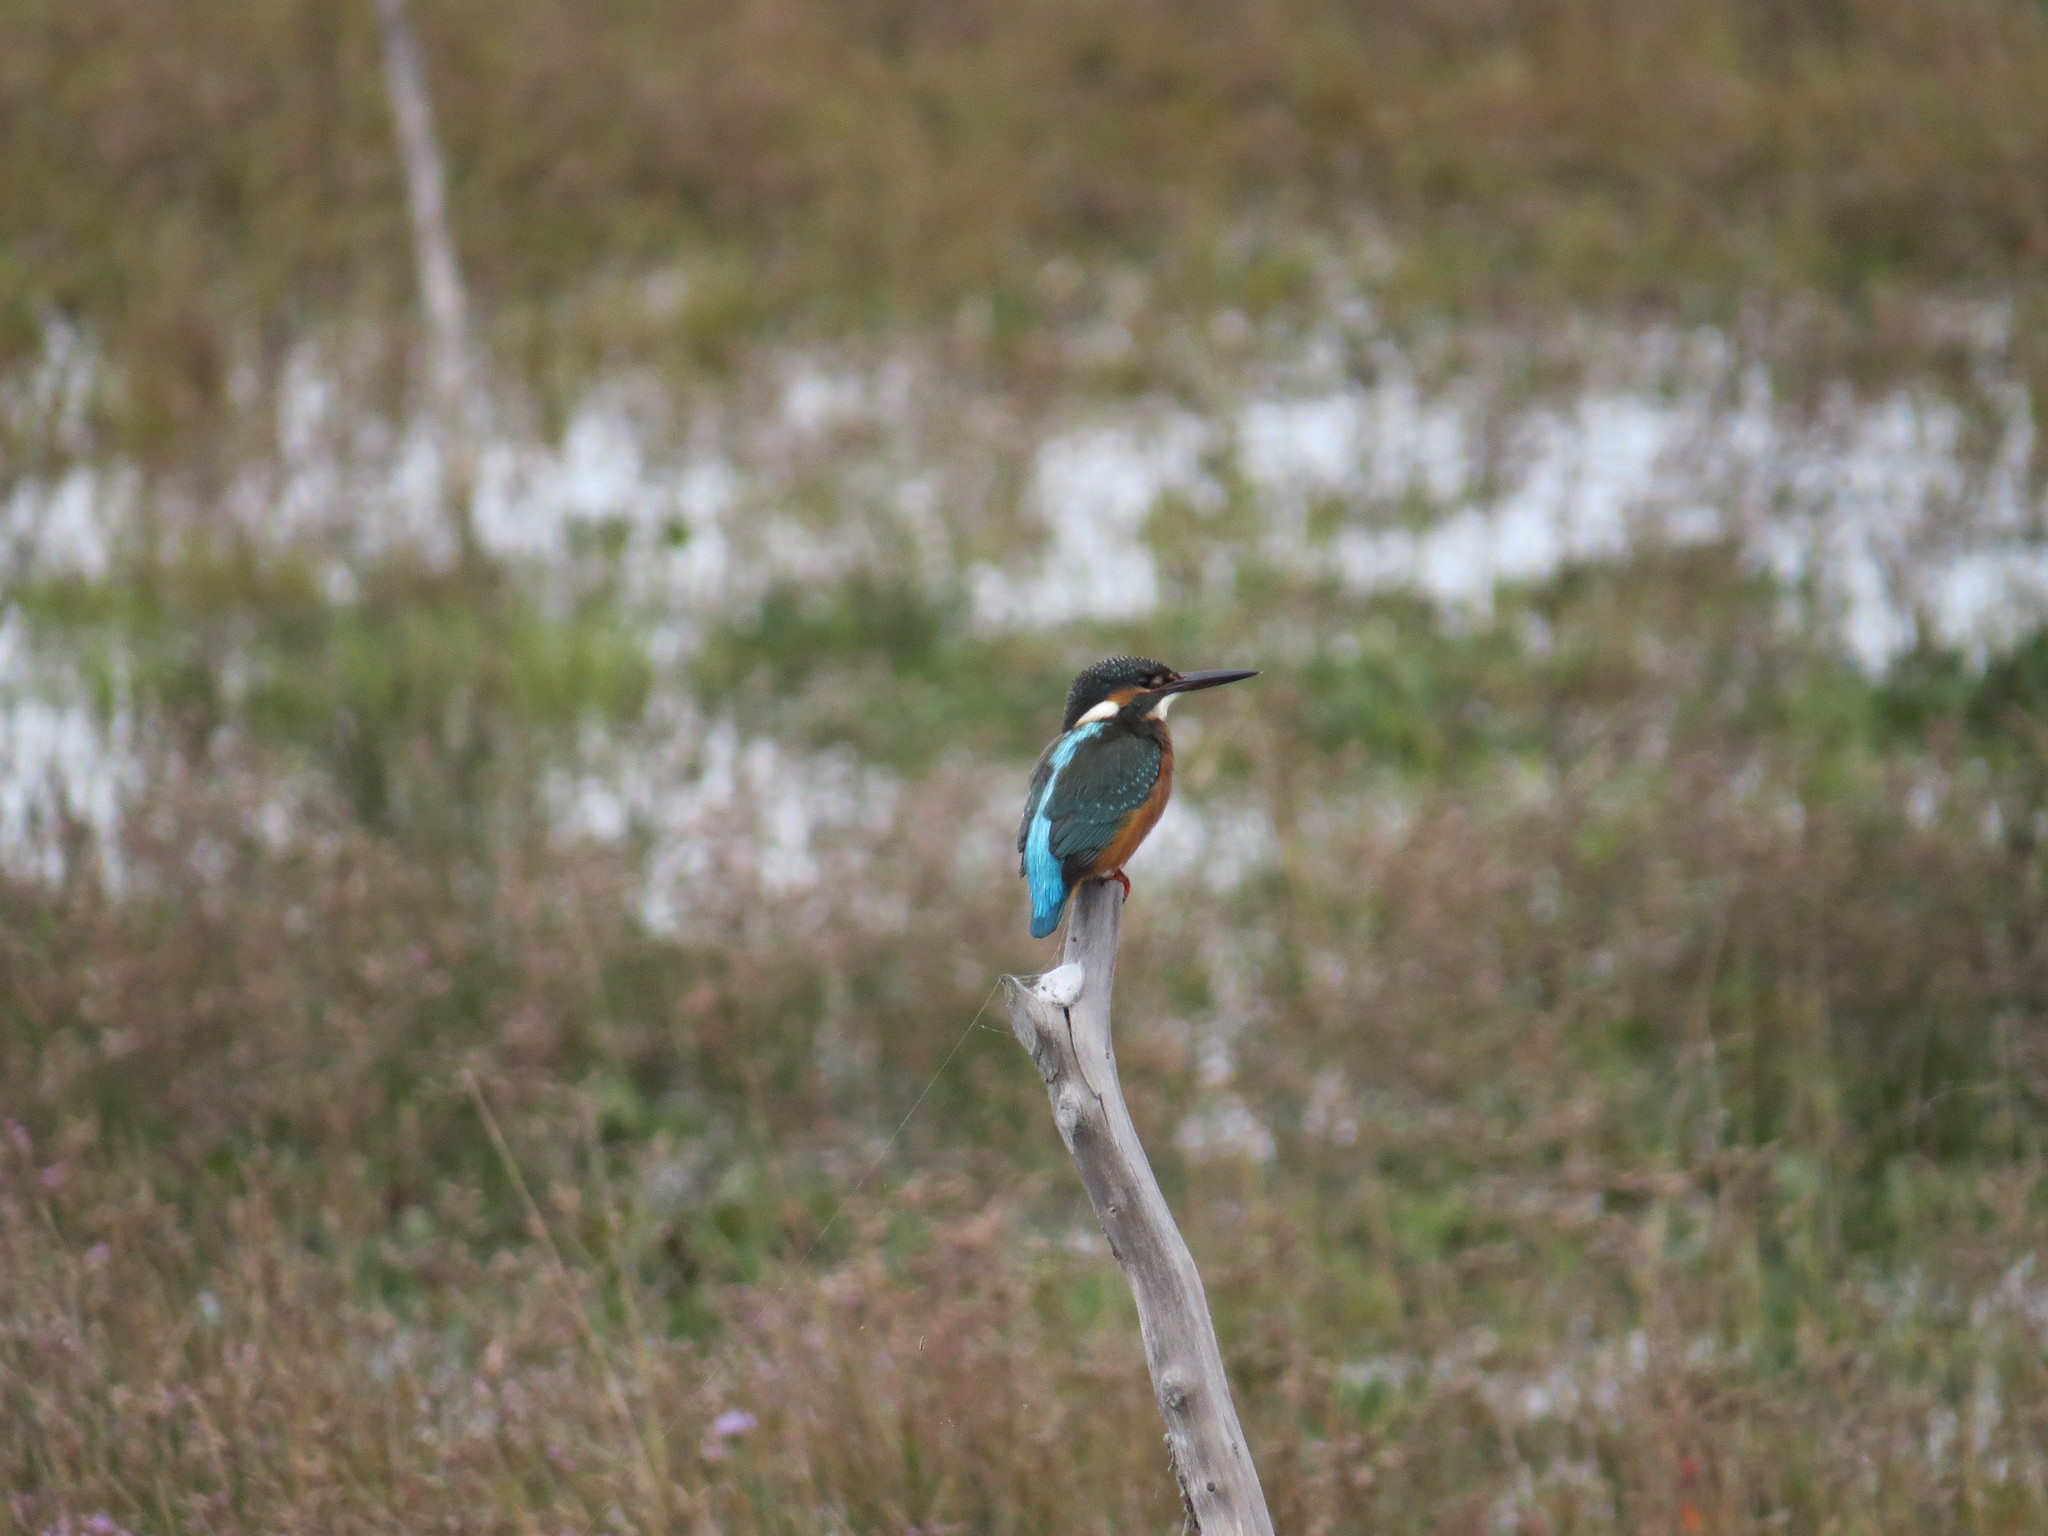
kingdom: Animalia
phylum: Chordata
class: Aves
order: Coraciiformes
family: Alcedinidae
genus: Alcedo
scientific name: Alcedo atthis
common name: Common kingfisher
